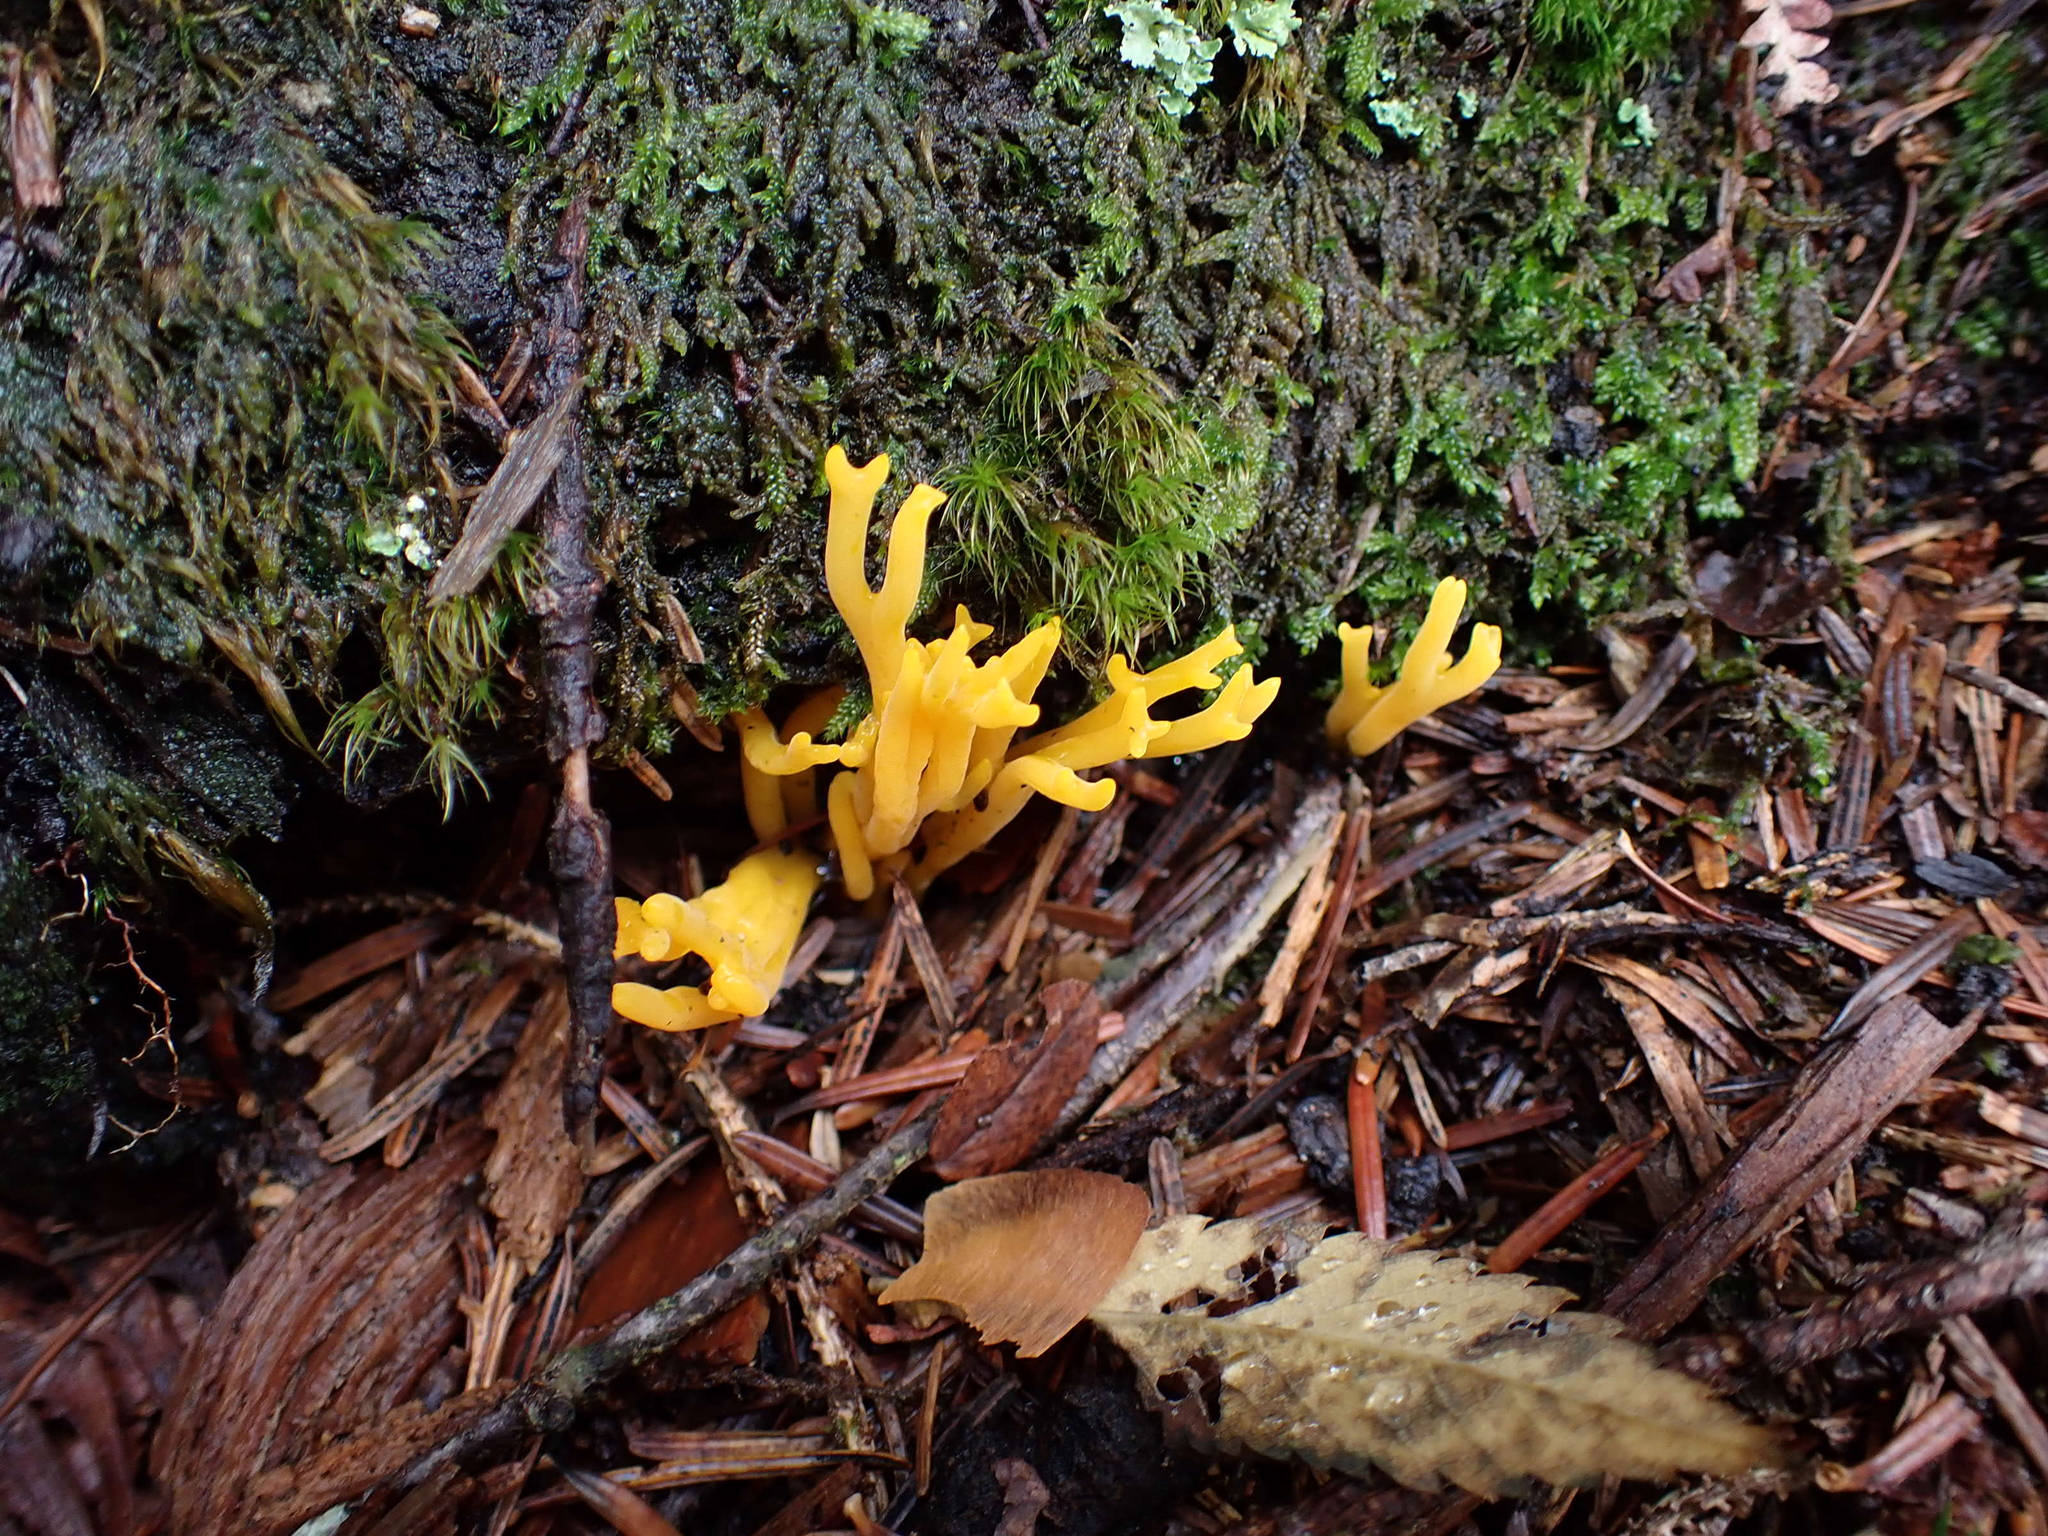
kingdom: Fungi
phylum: Basidiomycota
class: Dacrymycetes
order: Dacrymycetales
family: Dacrymycetaceae
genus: Calocera
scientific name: Calocera viscosa
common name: Yellow stagshorn
